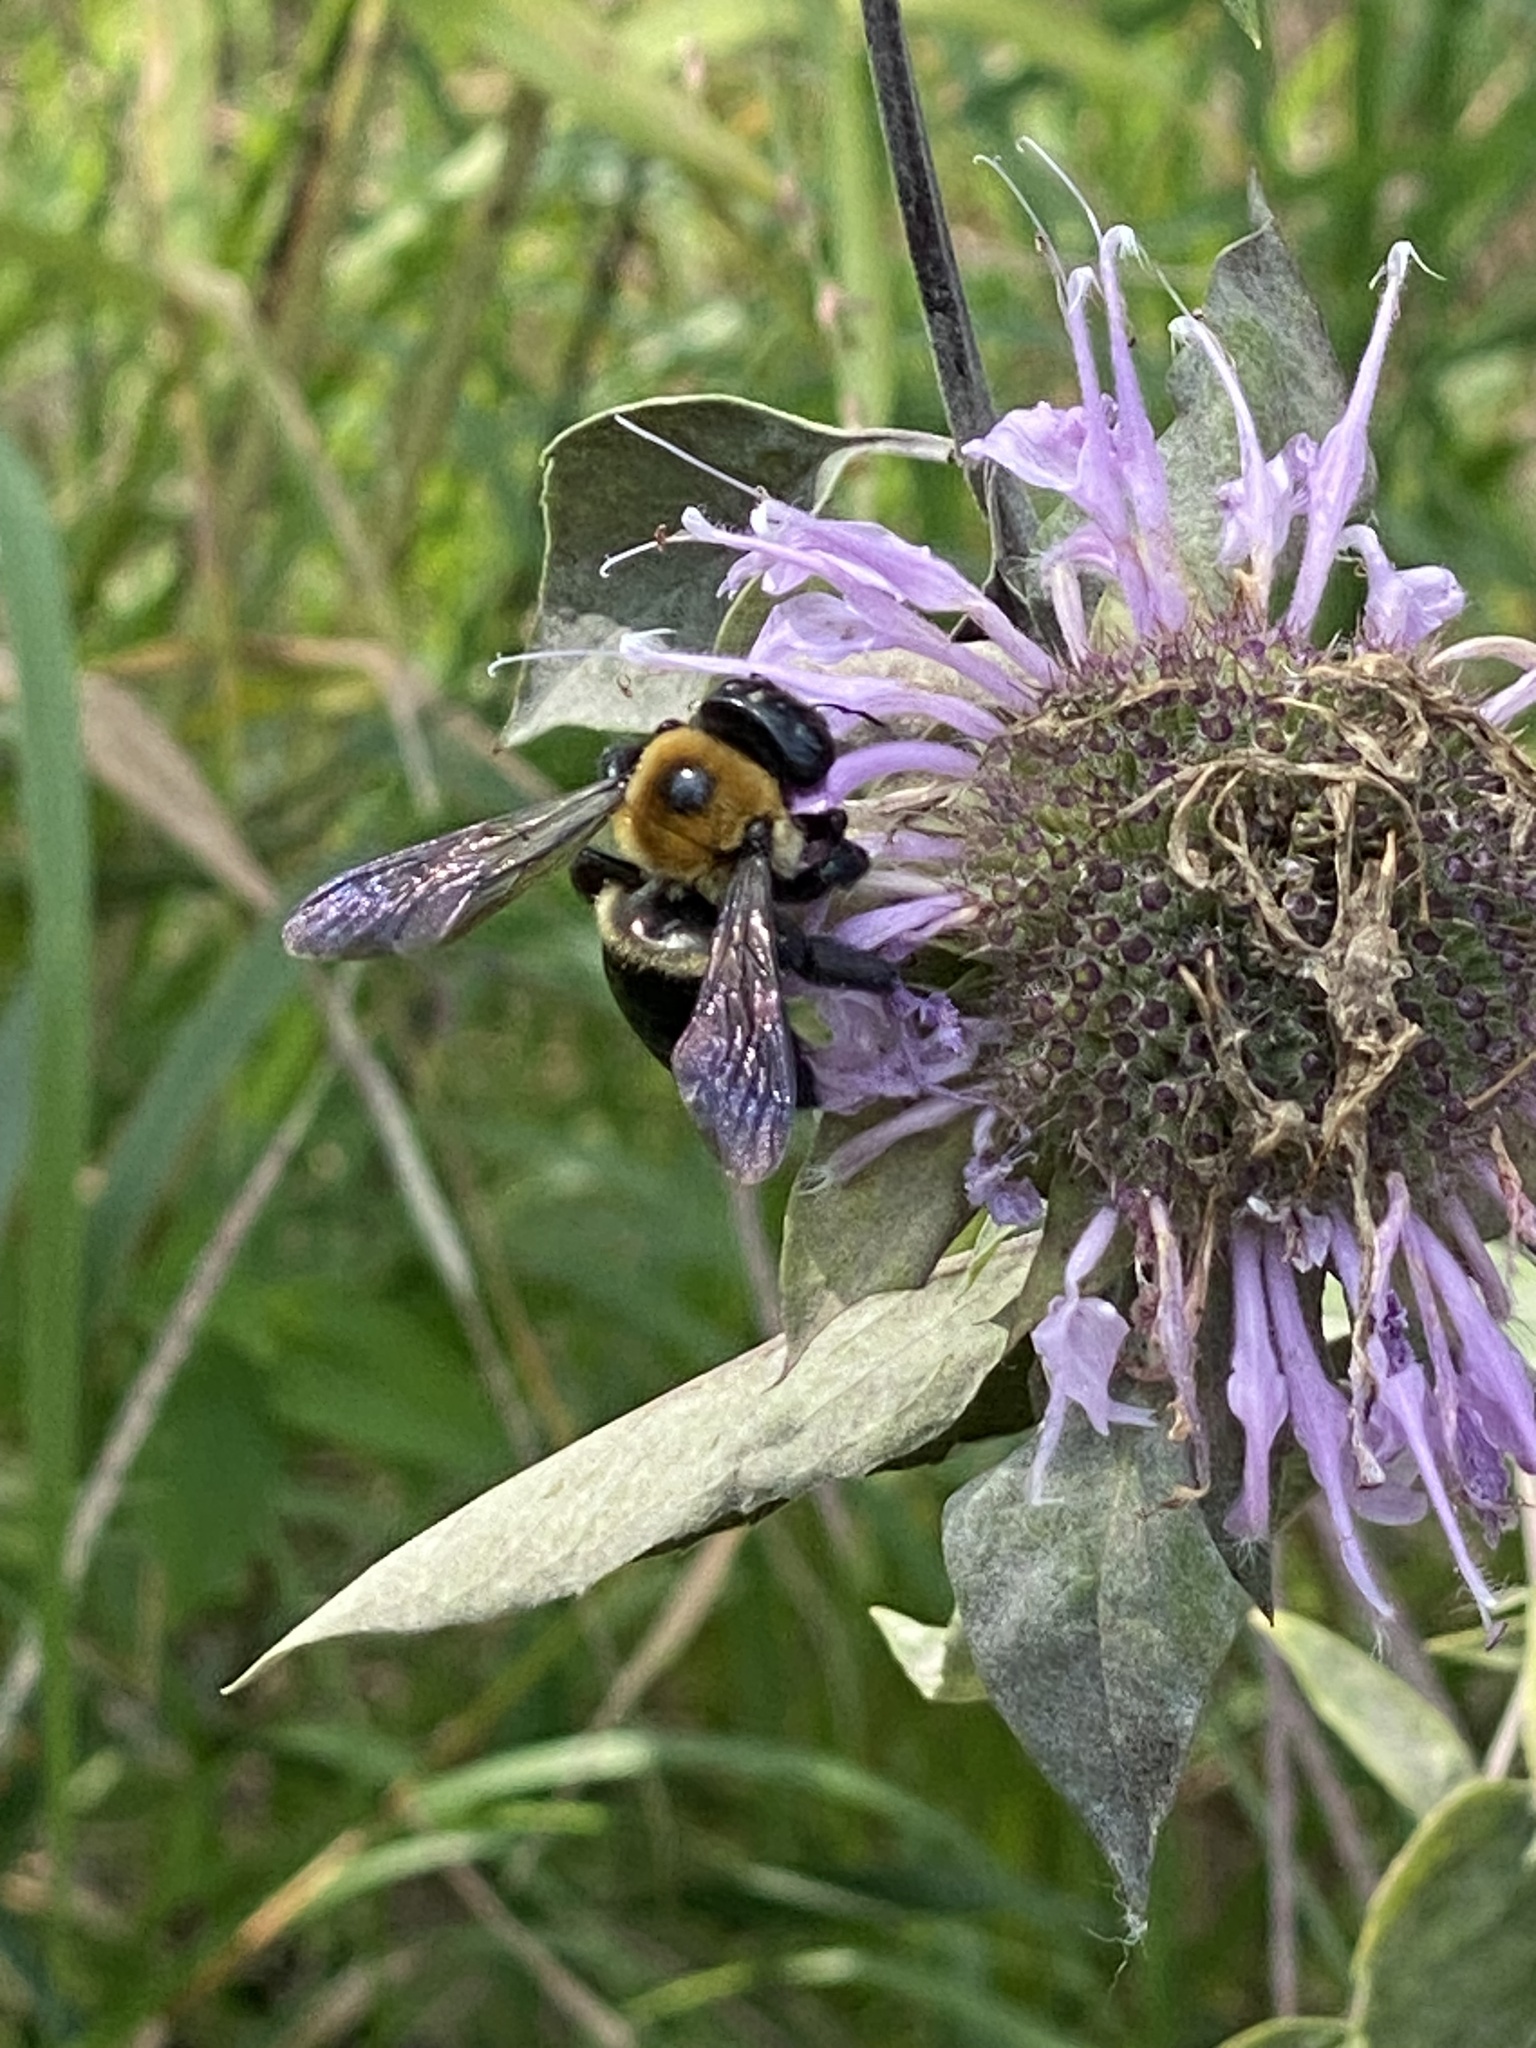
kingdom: Animalia
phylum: Arthropoda
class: Insecta
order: Hymenoptera
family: Apidae
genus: Xylocopa
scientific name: Xylocopa virginica
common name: Carpenter bee
